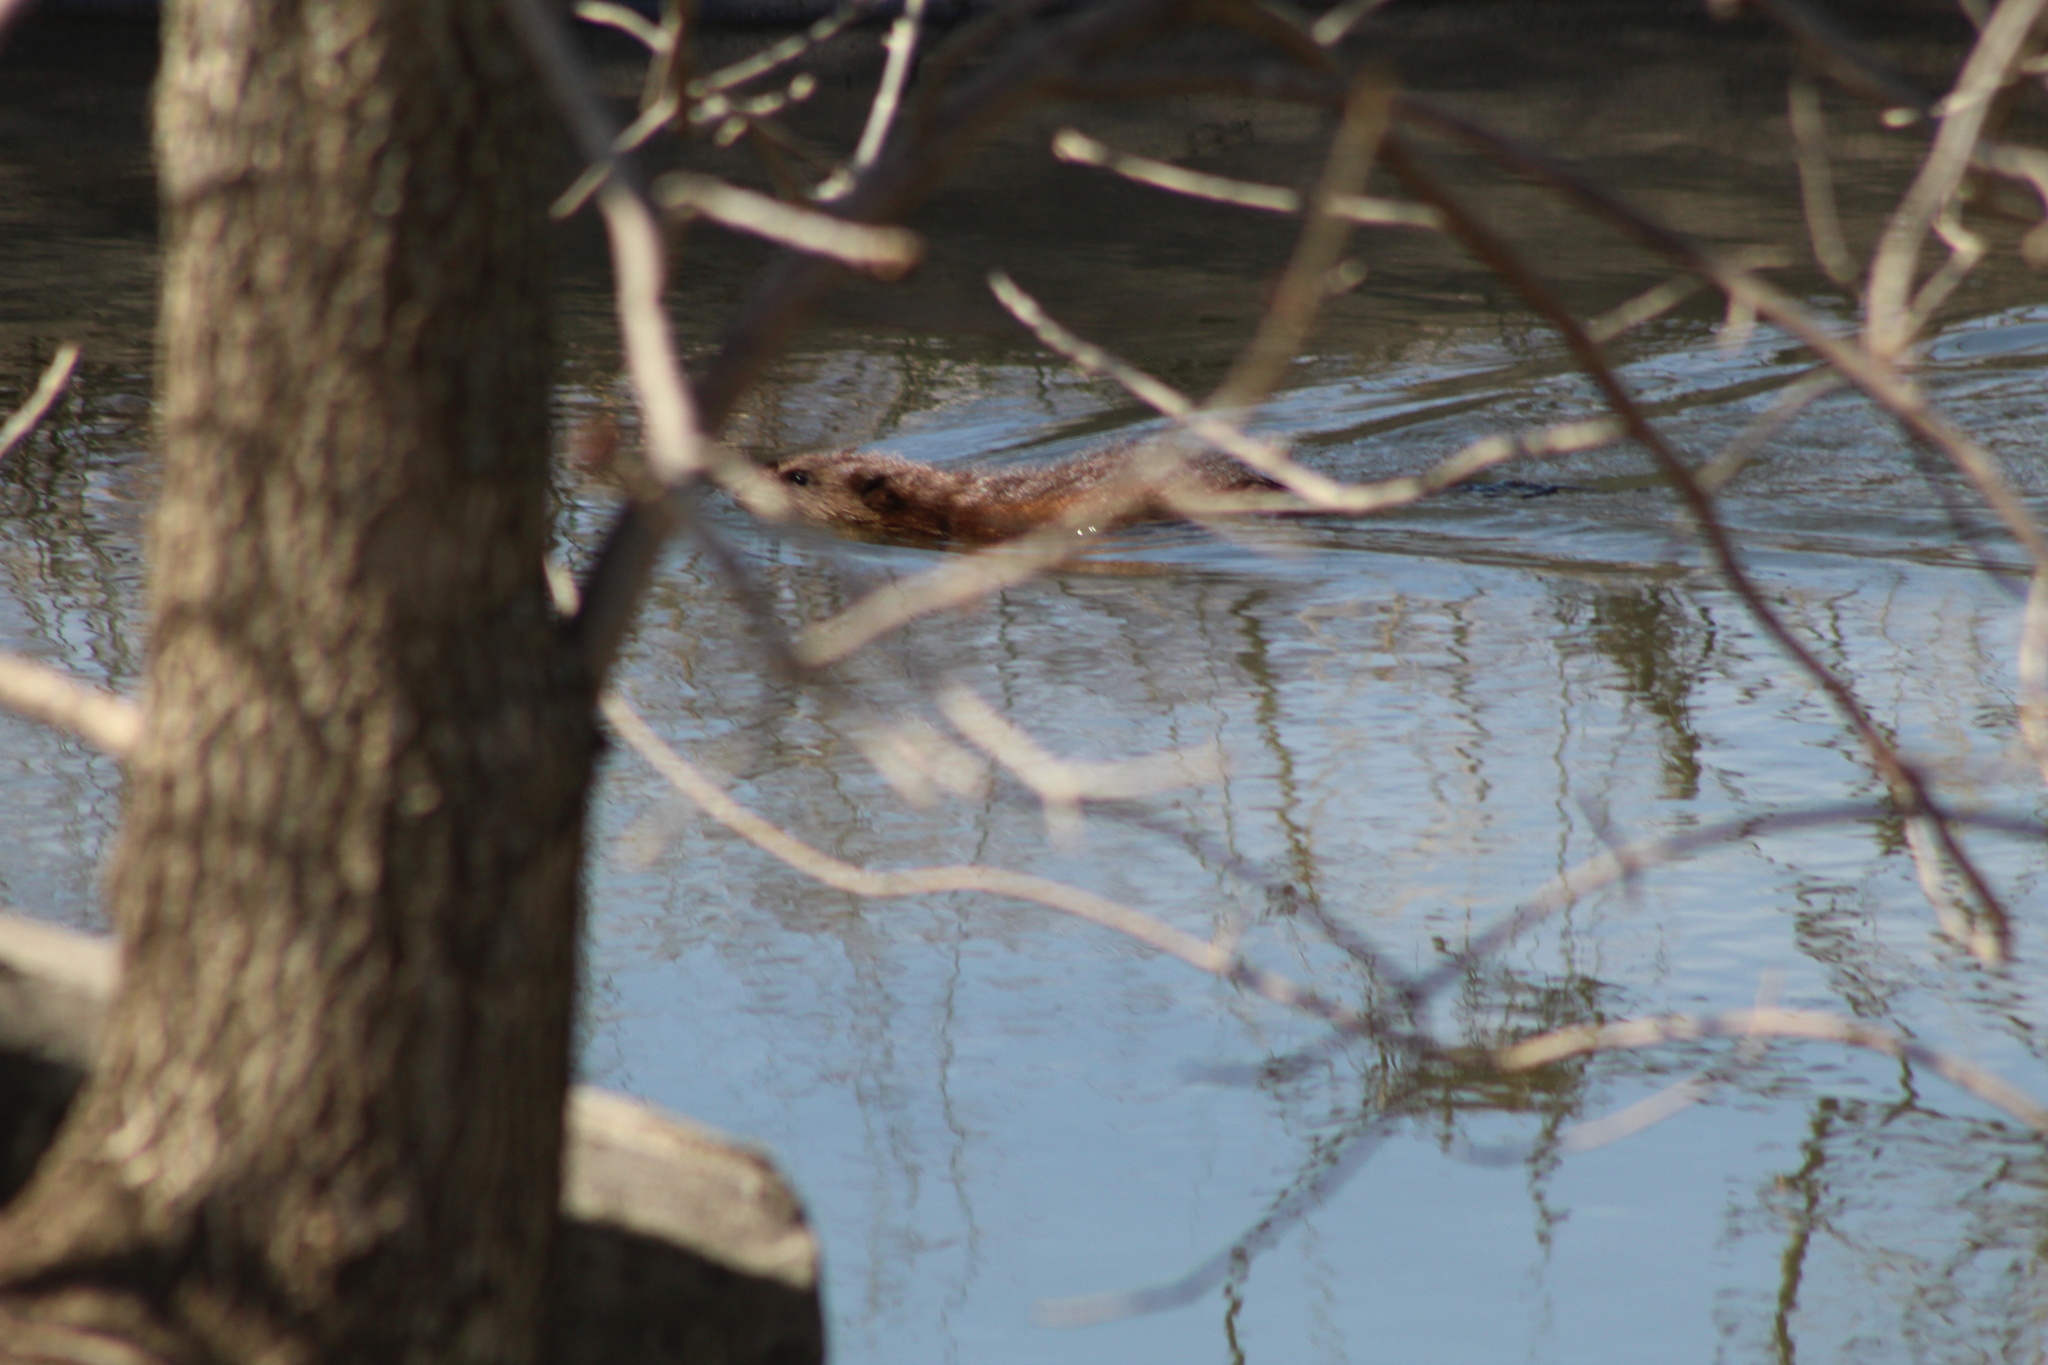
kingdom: Animalia
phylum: Chordata
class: Mammalia
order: Rodentia
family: Cricetidae
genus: Ondatra
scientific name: Ondatra zibethicus
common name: Muskrat
